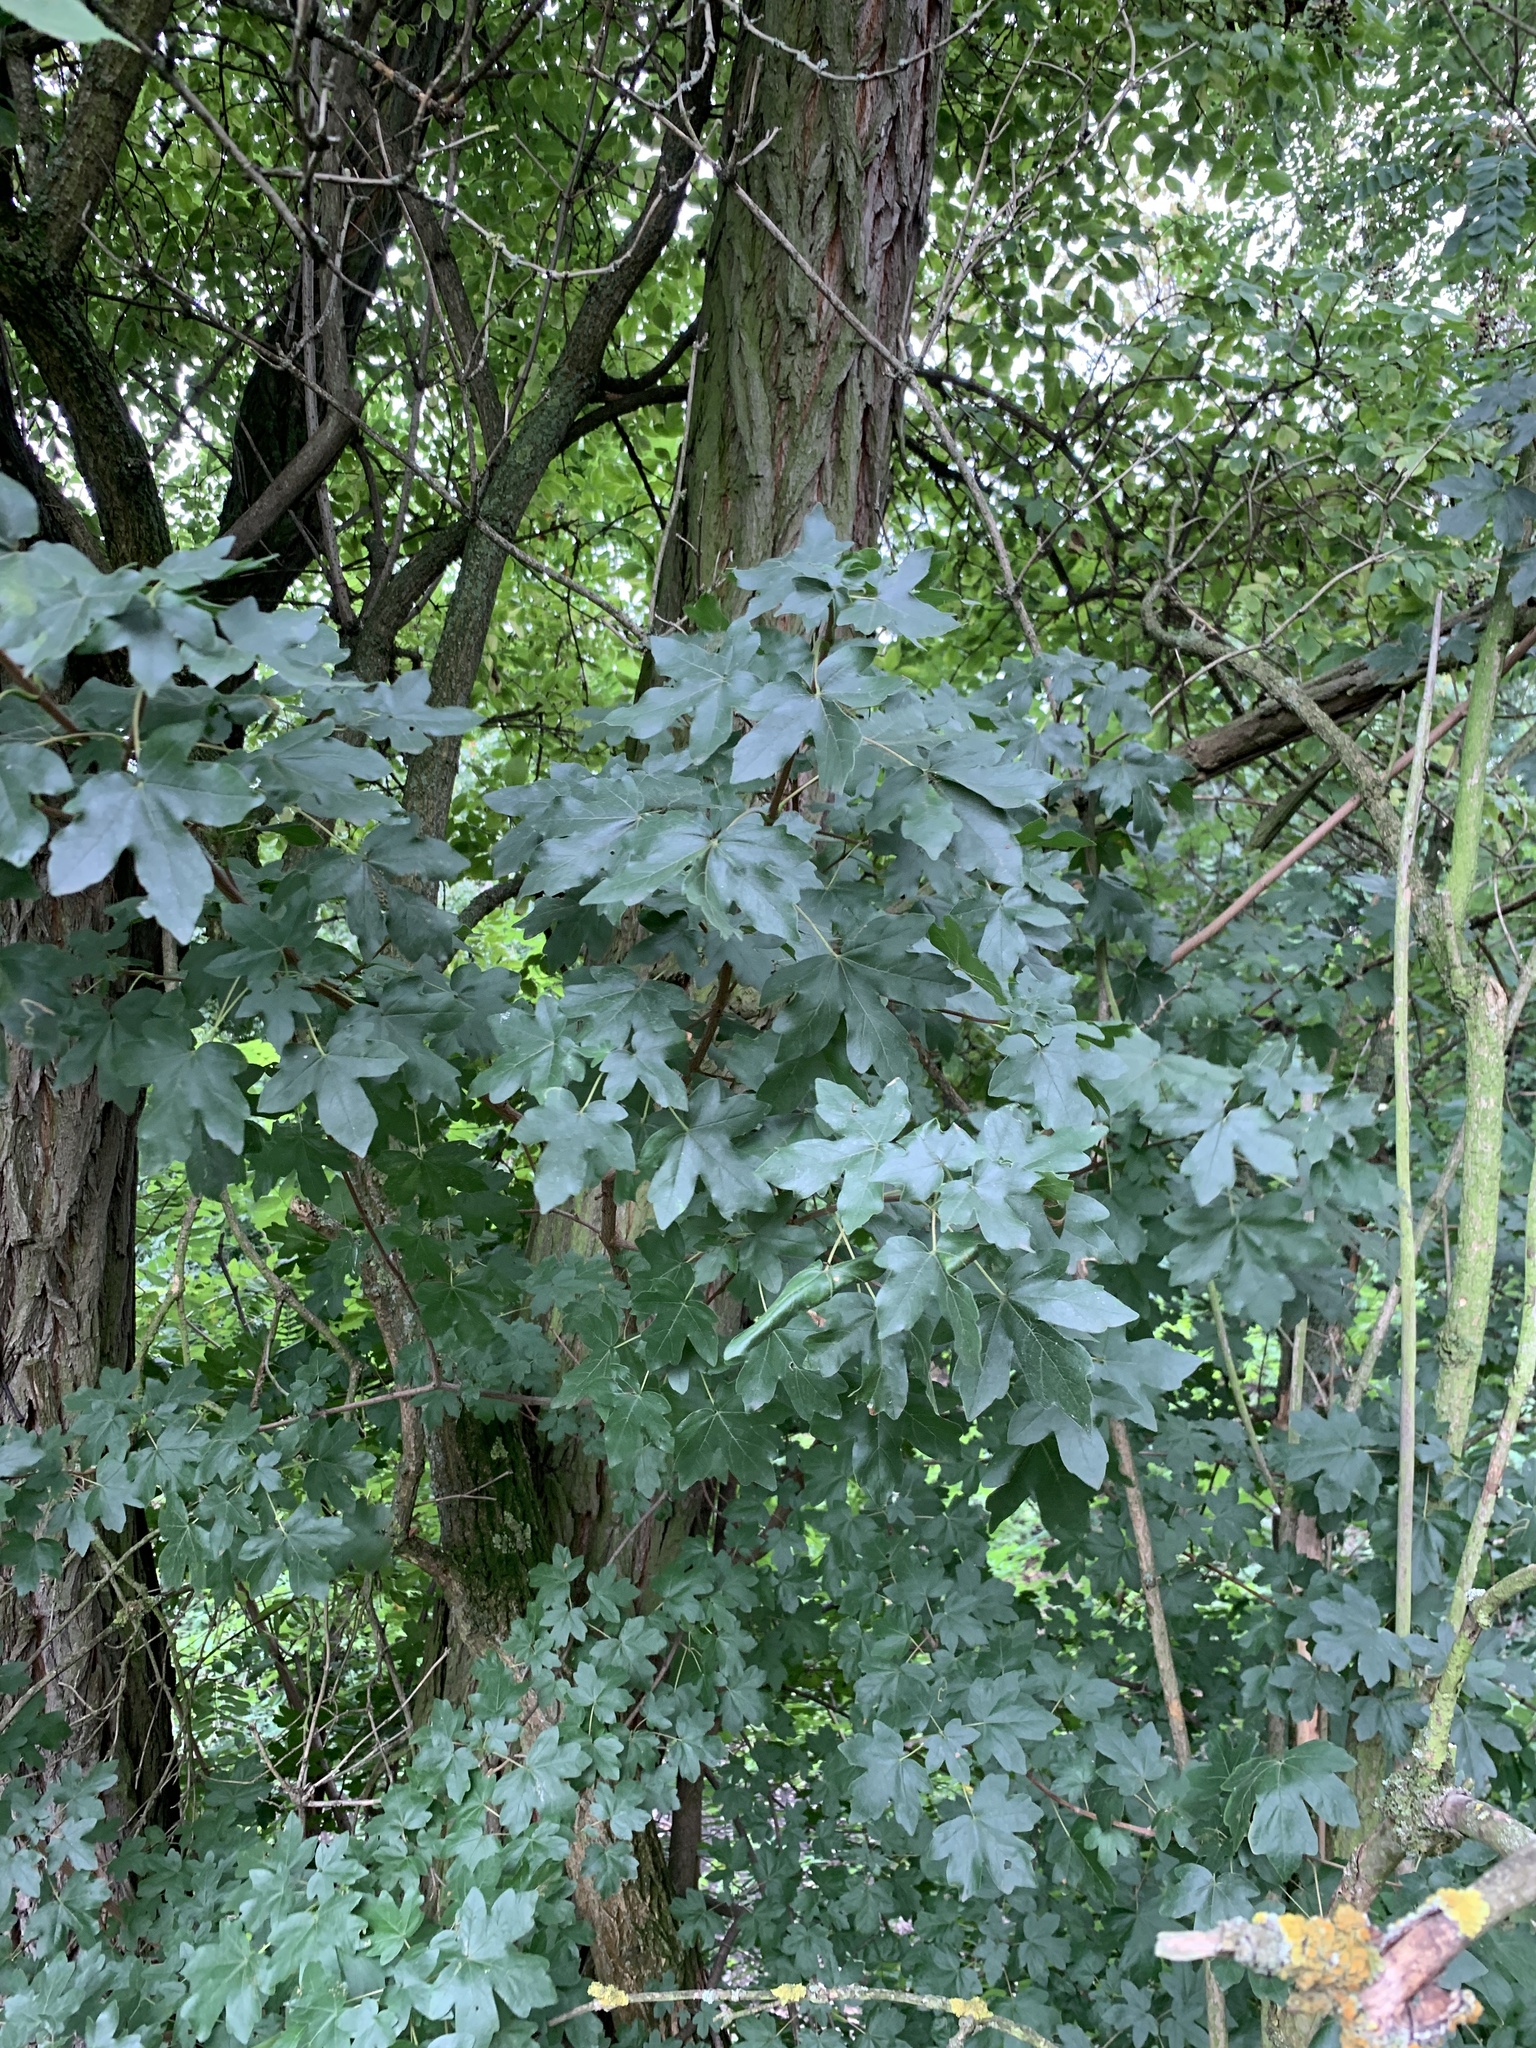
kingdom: Plantae
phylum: Tracheophyta
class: Magnoliopsida
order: Sapindales
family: Sapindaceae
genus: Acer
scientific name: Acer campestre
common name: Field maple
